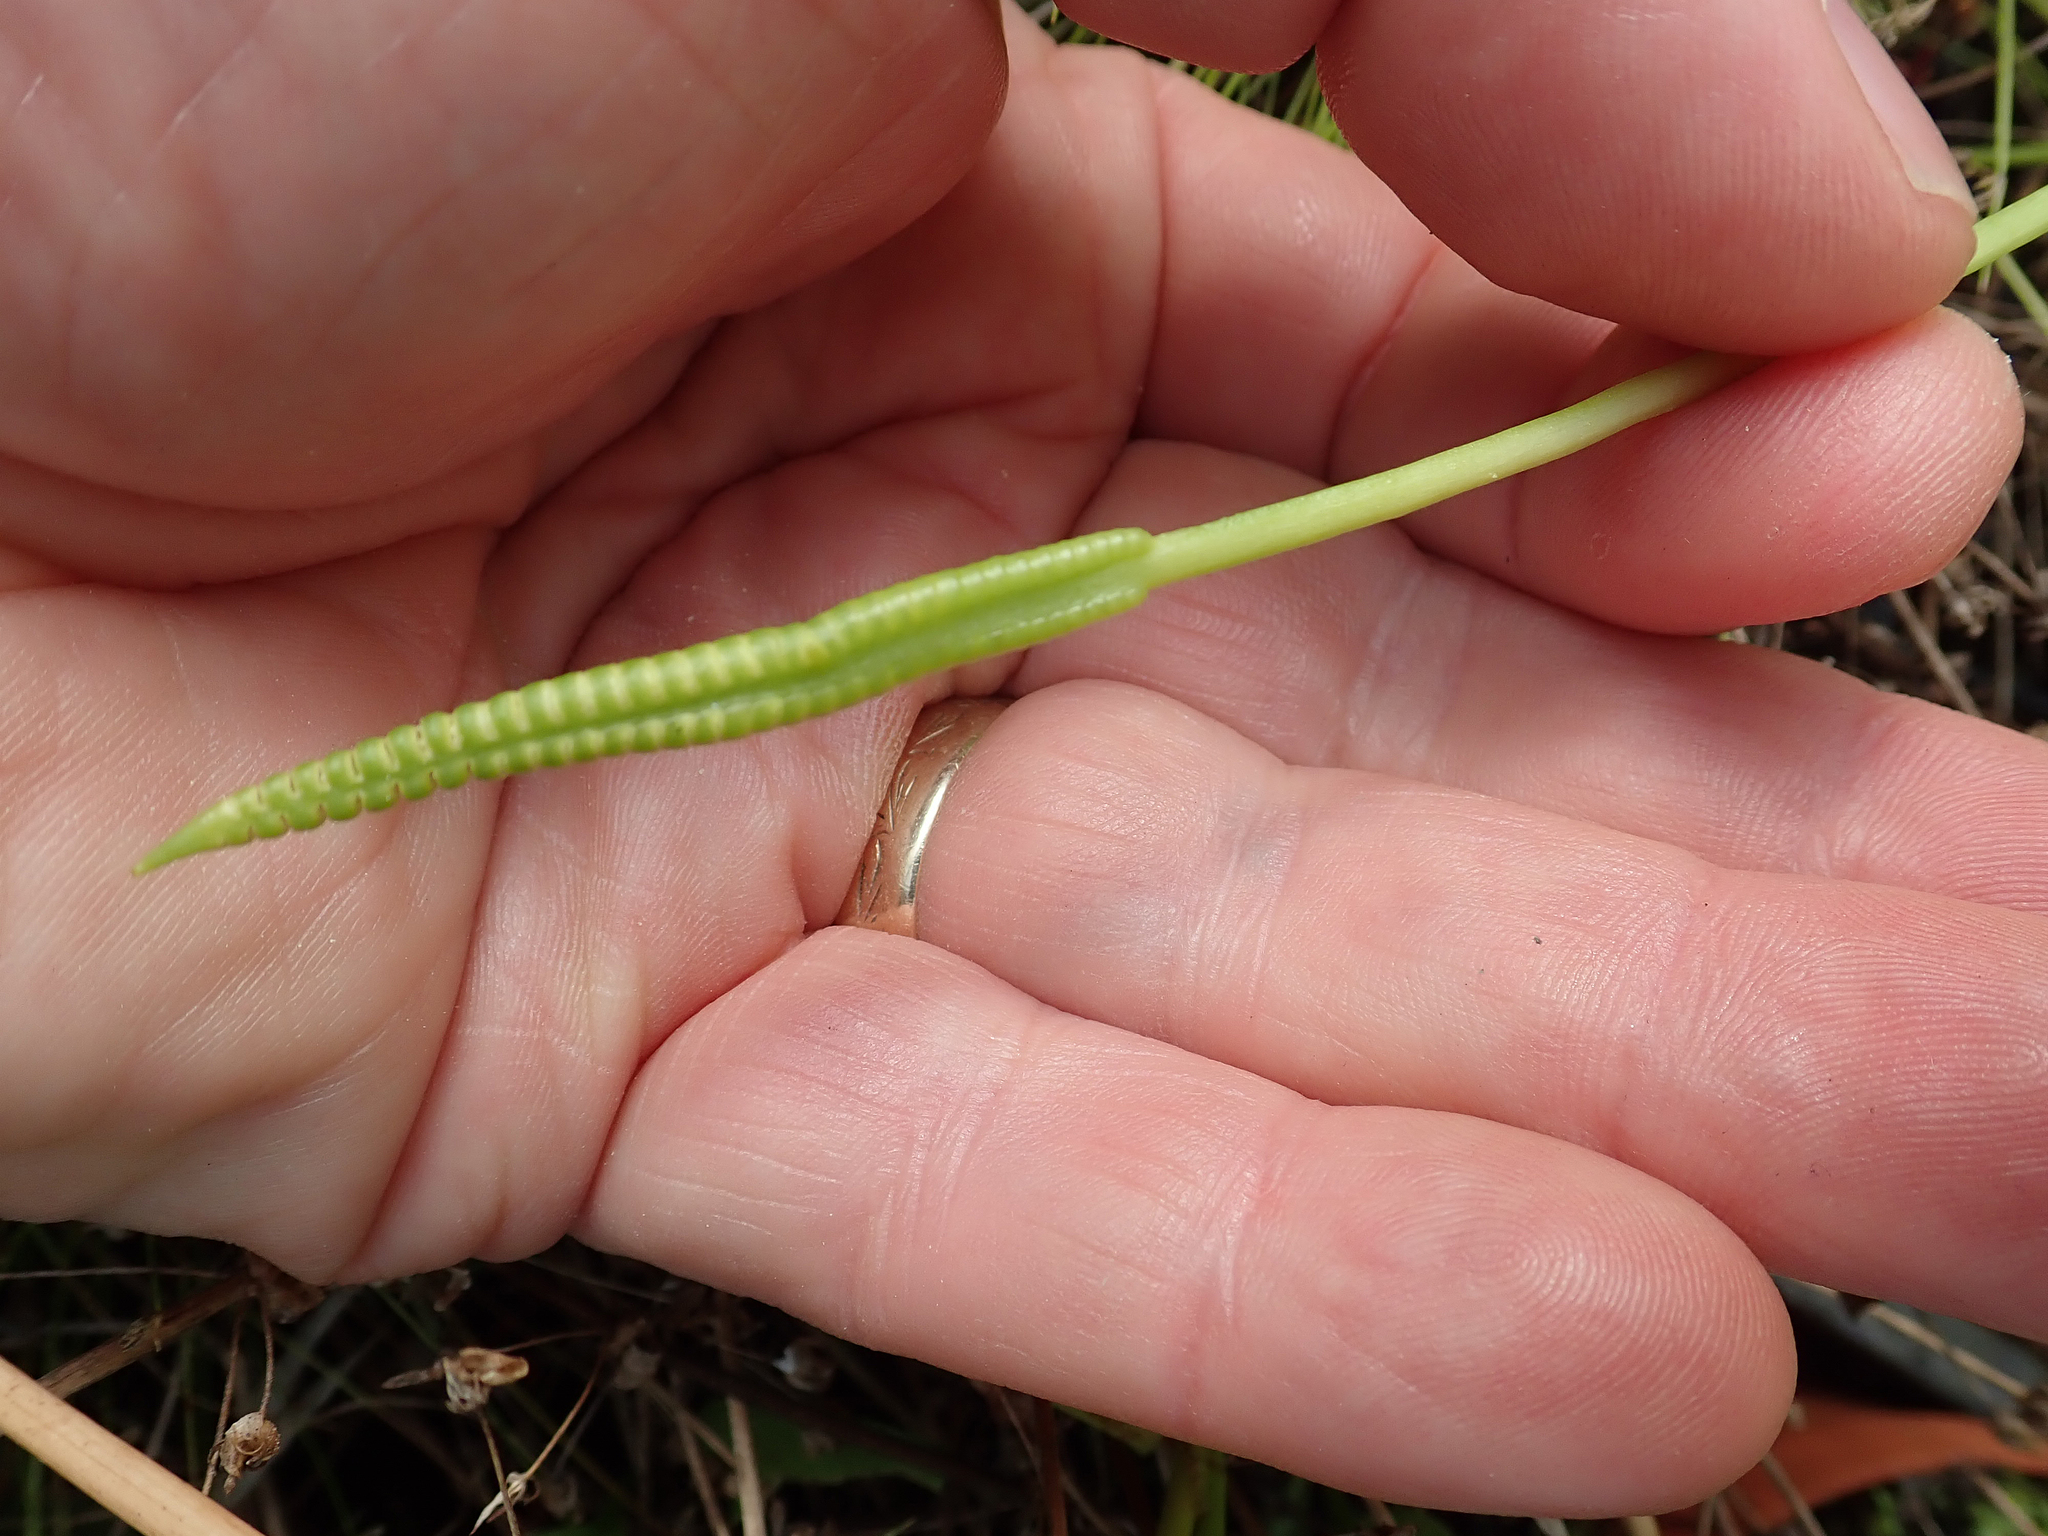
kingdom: Plantae
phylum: Tracheophyta
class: Polypodiopsida
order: Ophioglossales
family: Ophioglossaceae
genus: Ophioglossum
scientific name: Ophioglossum petiolatum
